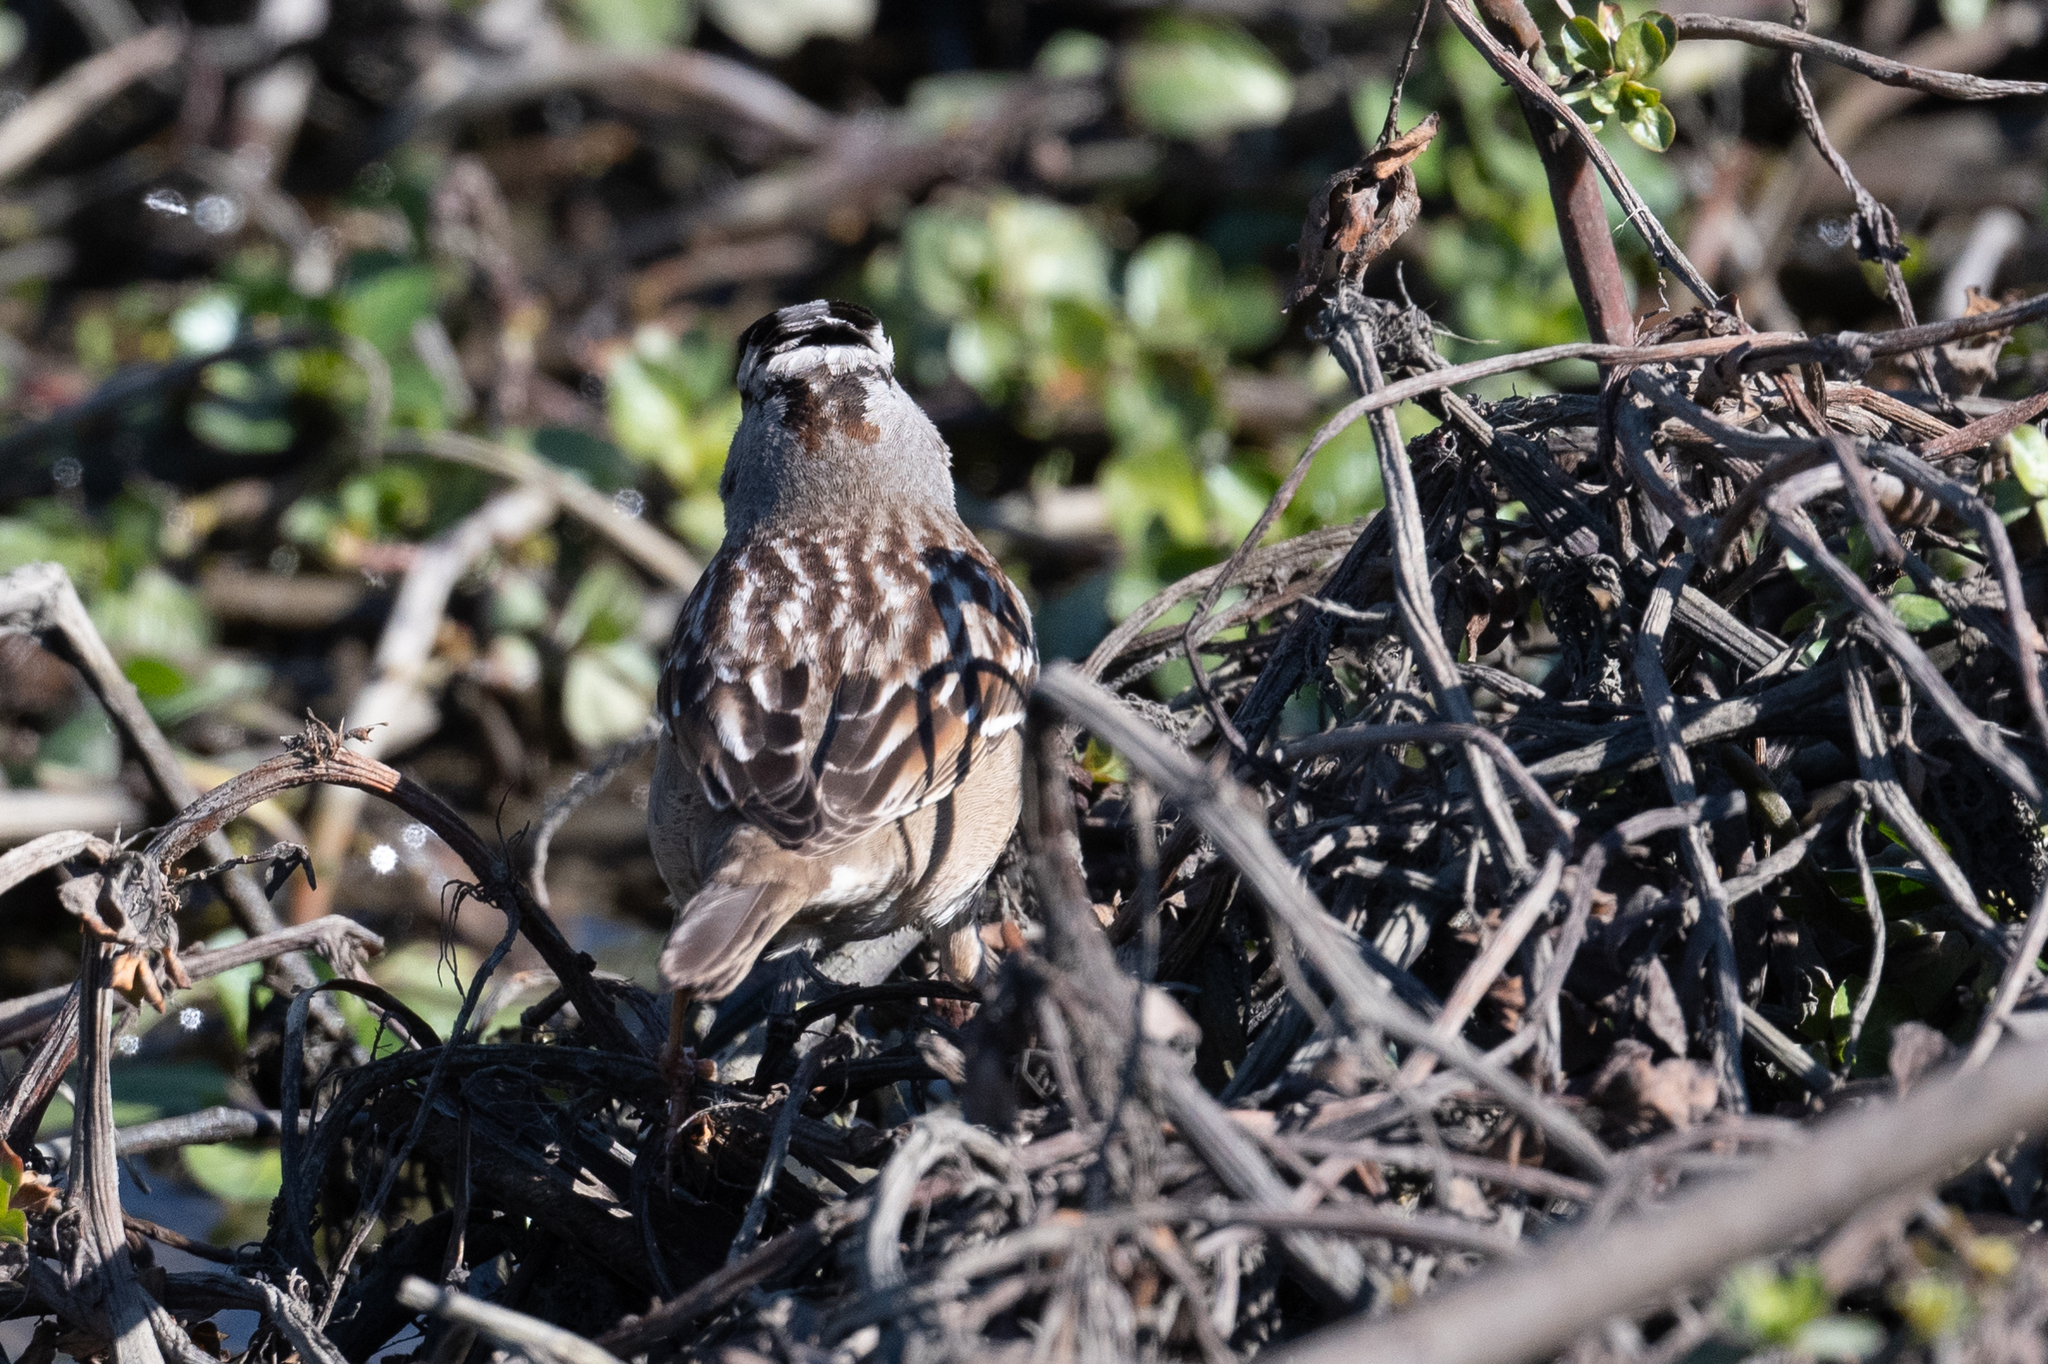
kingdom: Animalia
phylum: Chordata
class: Aves
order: Passeriformes
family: Passerellidae
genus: Zonotrichia
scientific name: Zonotrichia leucophrys
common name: White-crowned sparrow
